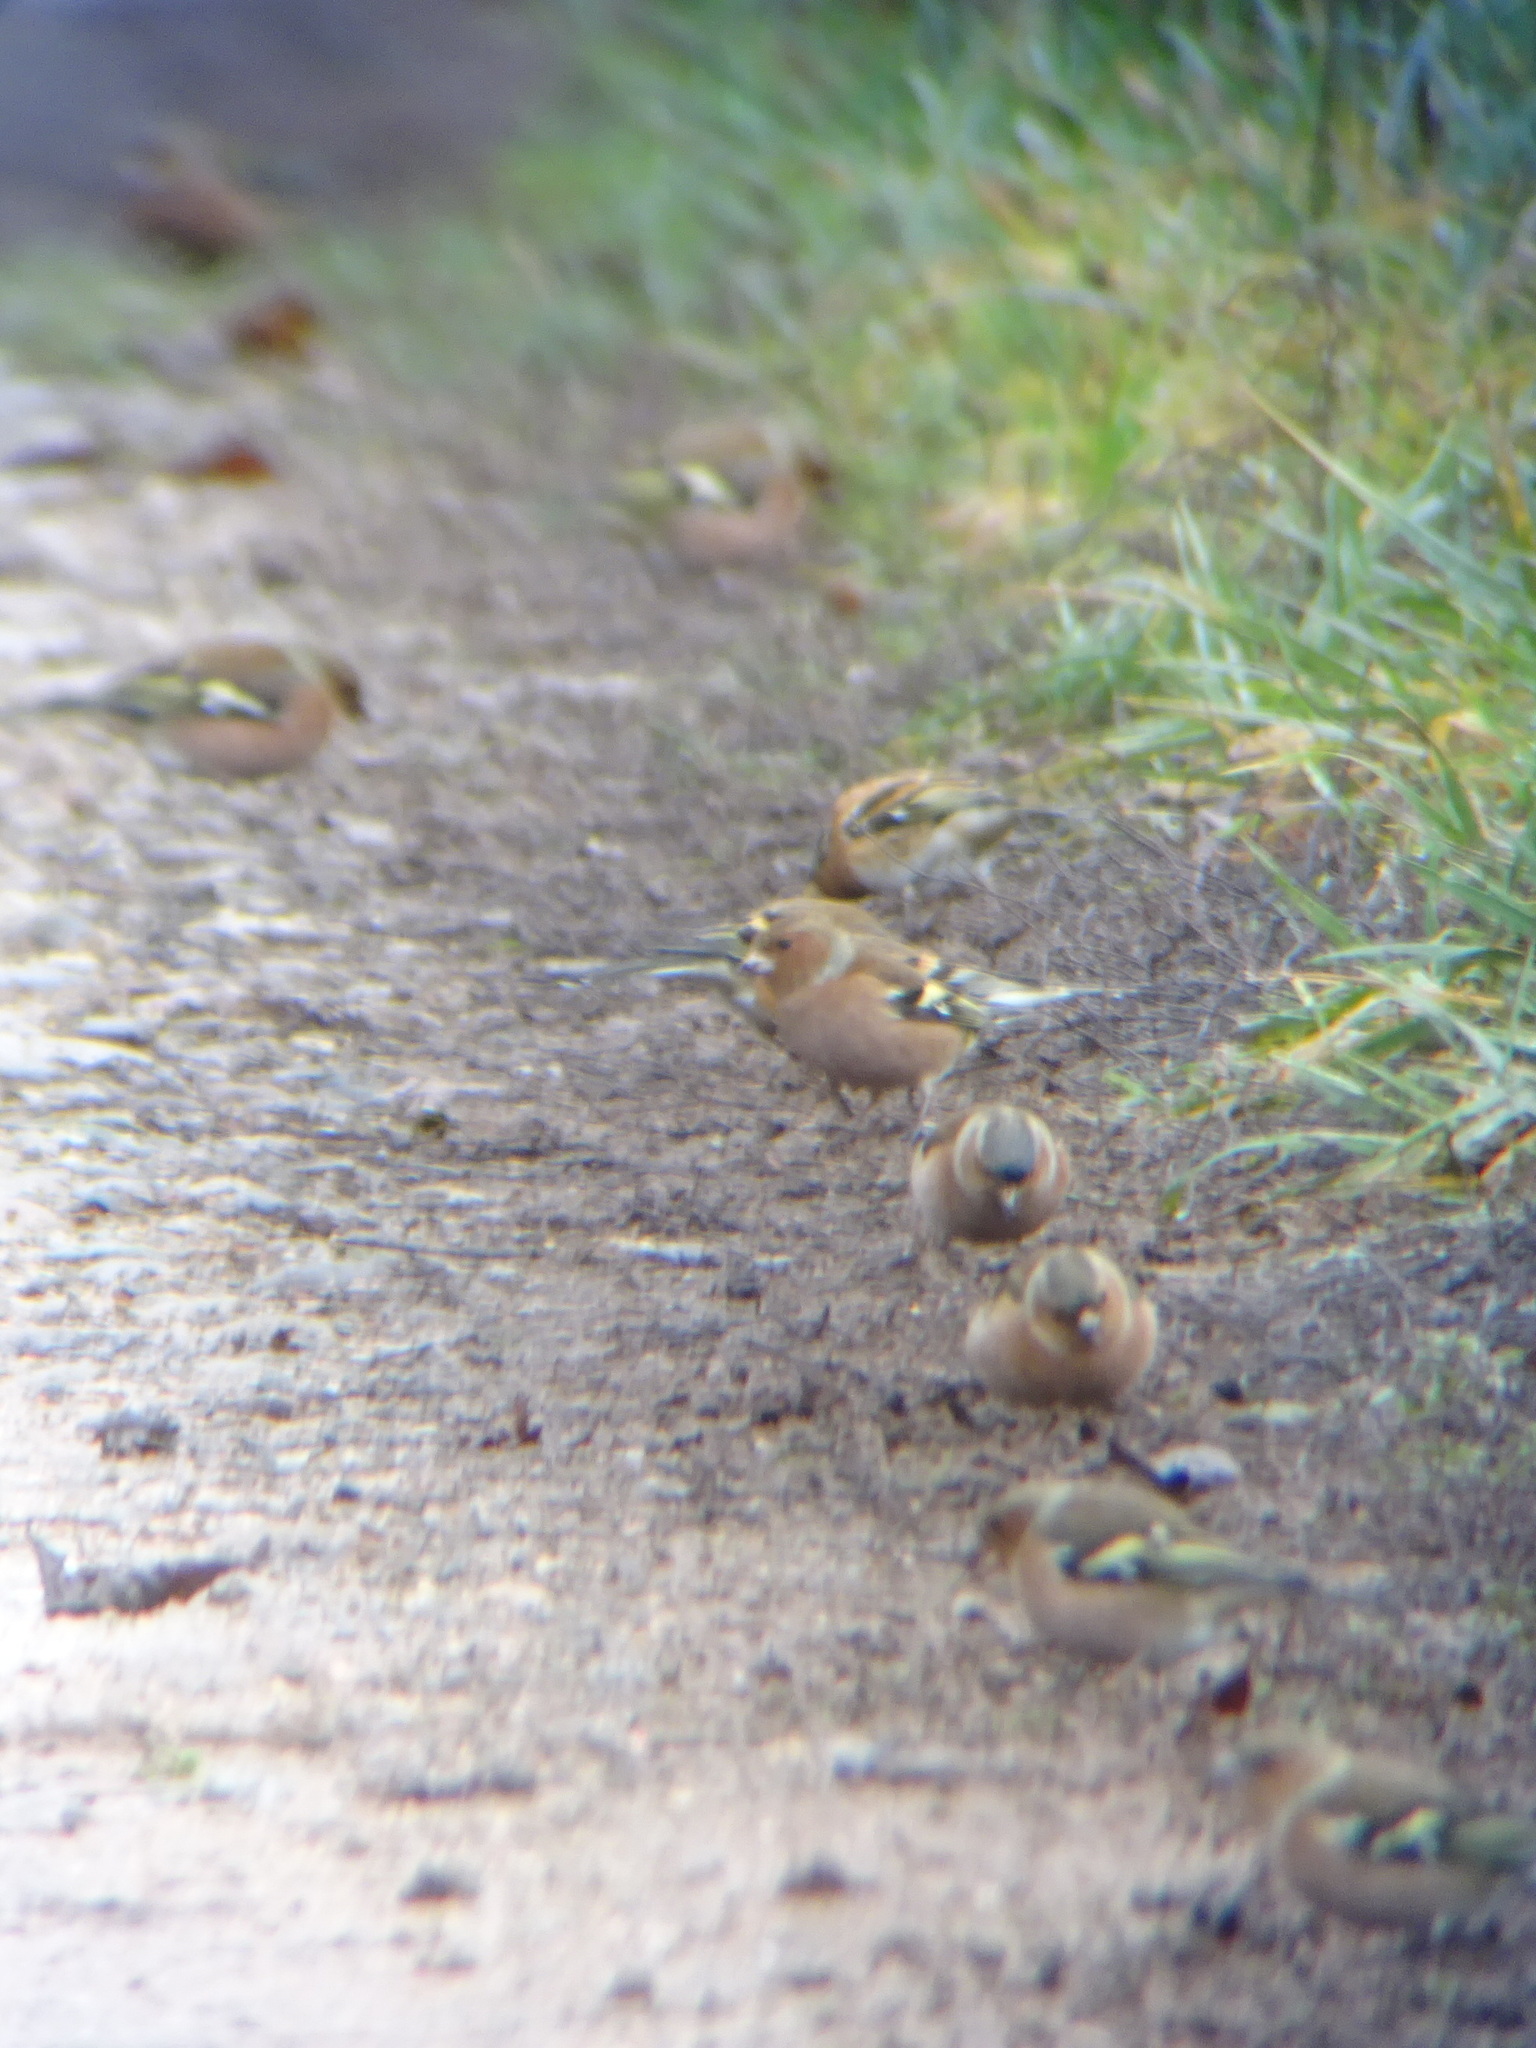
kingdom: Animalia
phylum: Chordata
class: Aves
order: Passeriformes
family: Fringillidae
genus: Fringilla
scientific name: Fringilla coelebs
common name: Common chaffinch
